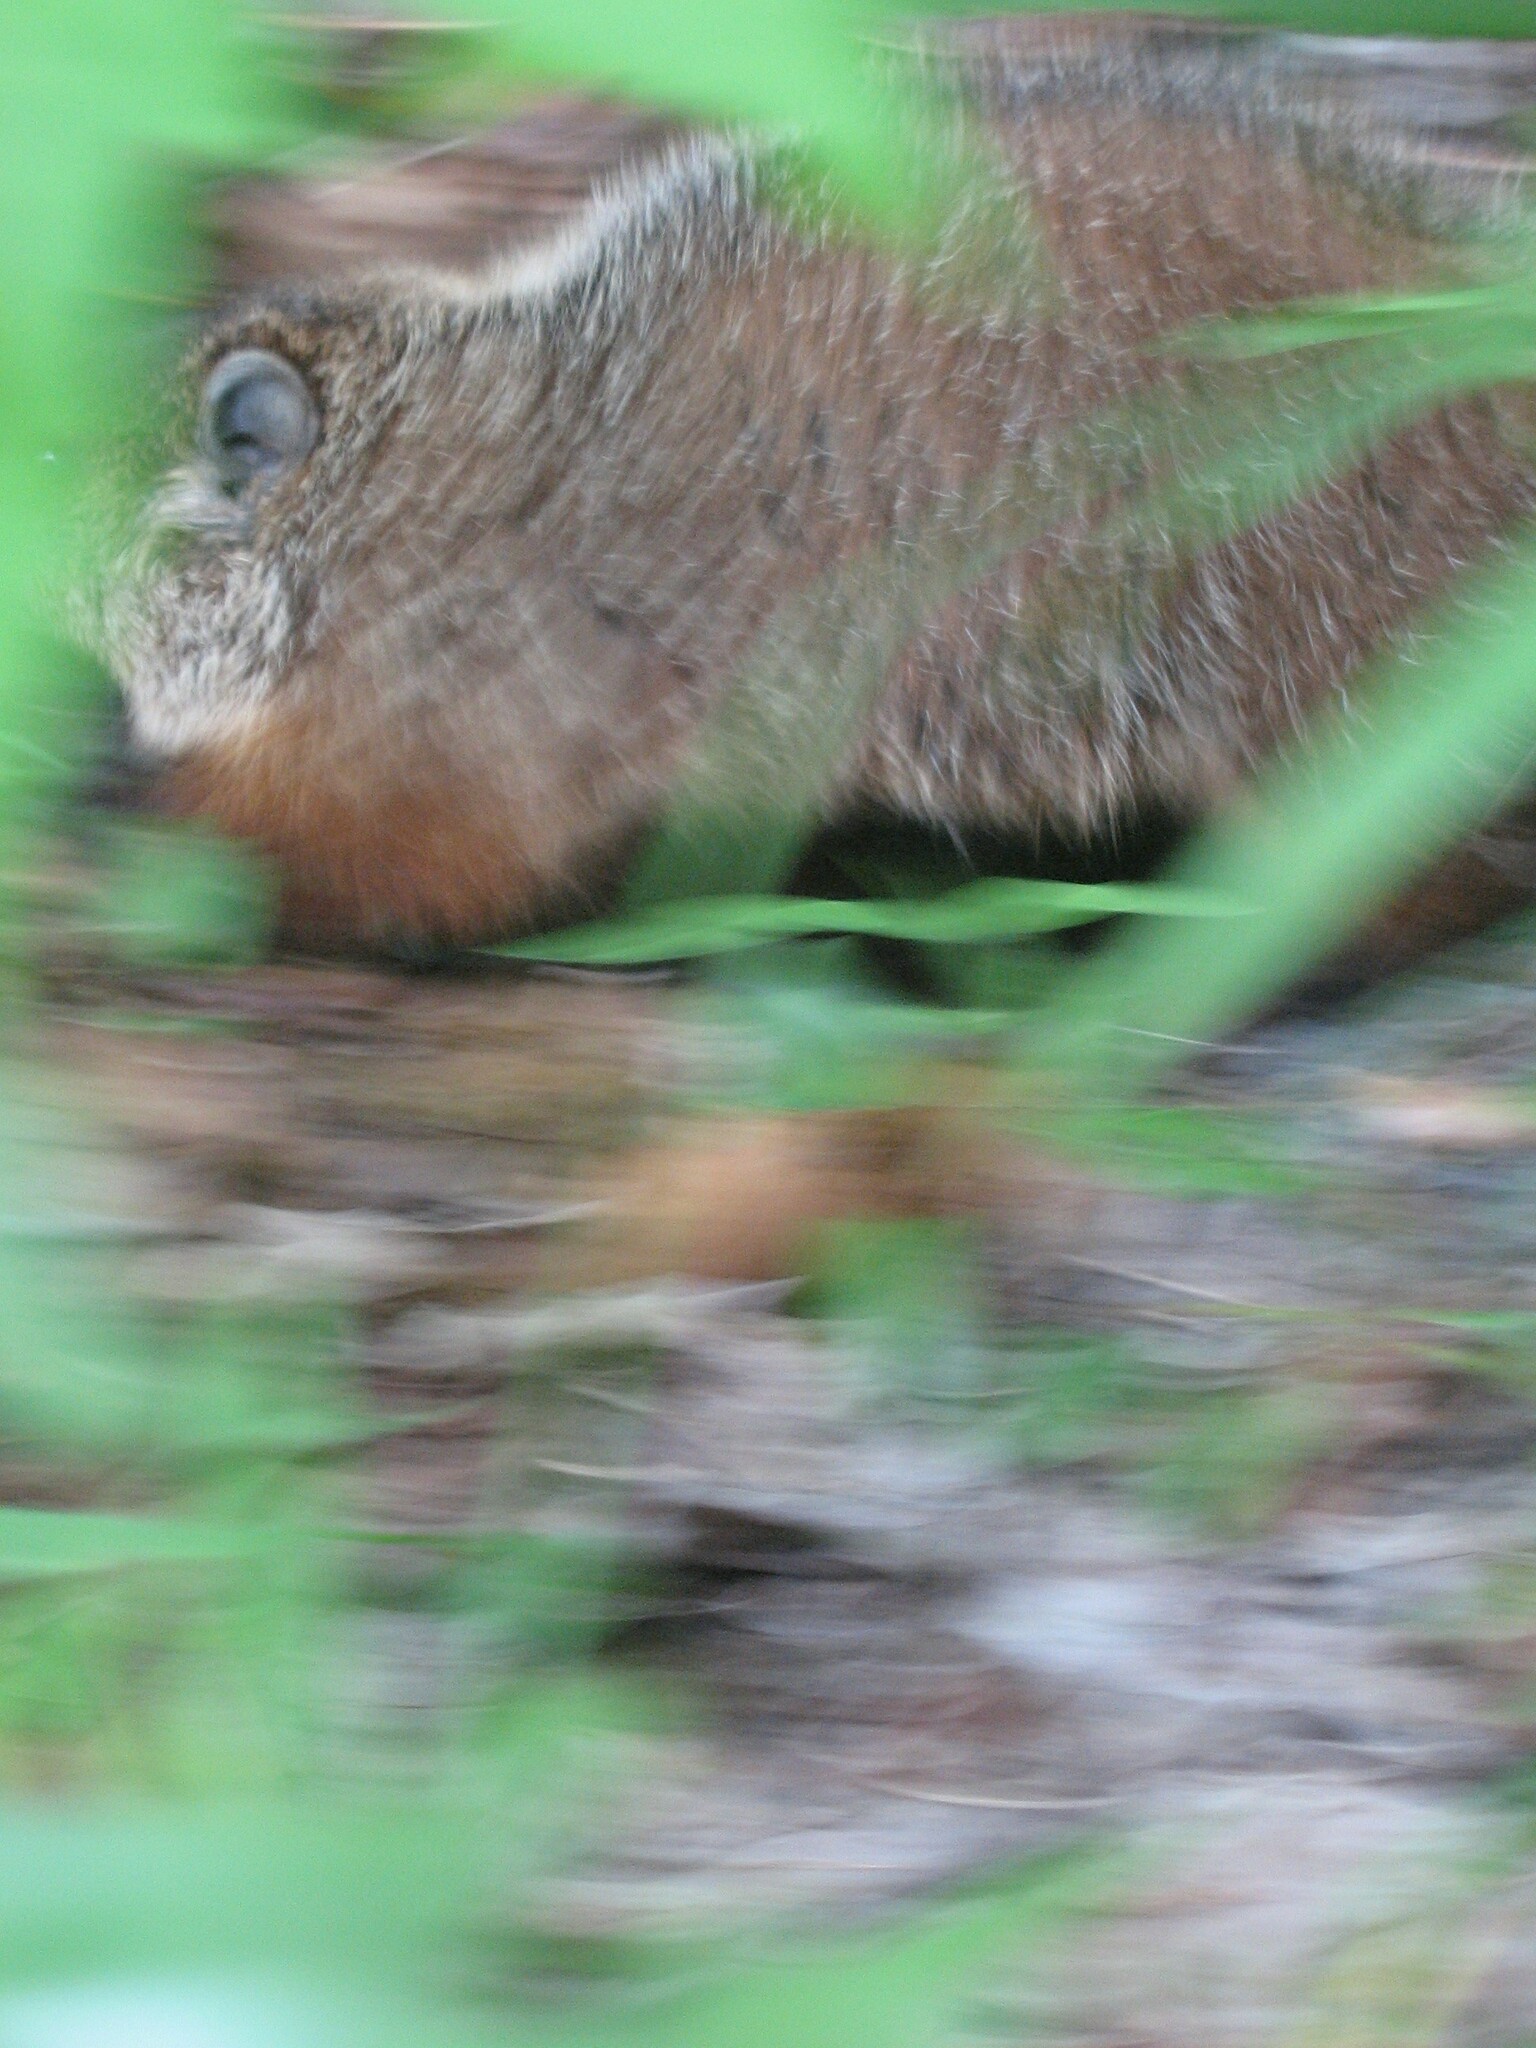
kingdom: Animalia
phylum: Chordata
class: Mammalia
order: Rodentia
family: Sciuridae
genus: Marmota
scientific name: Marmota monax
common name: Groundhog
